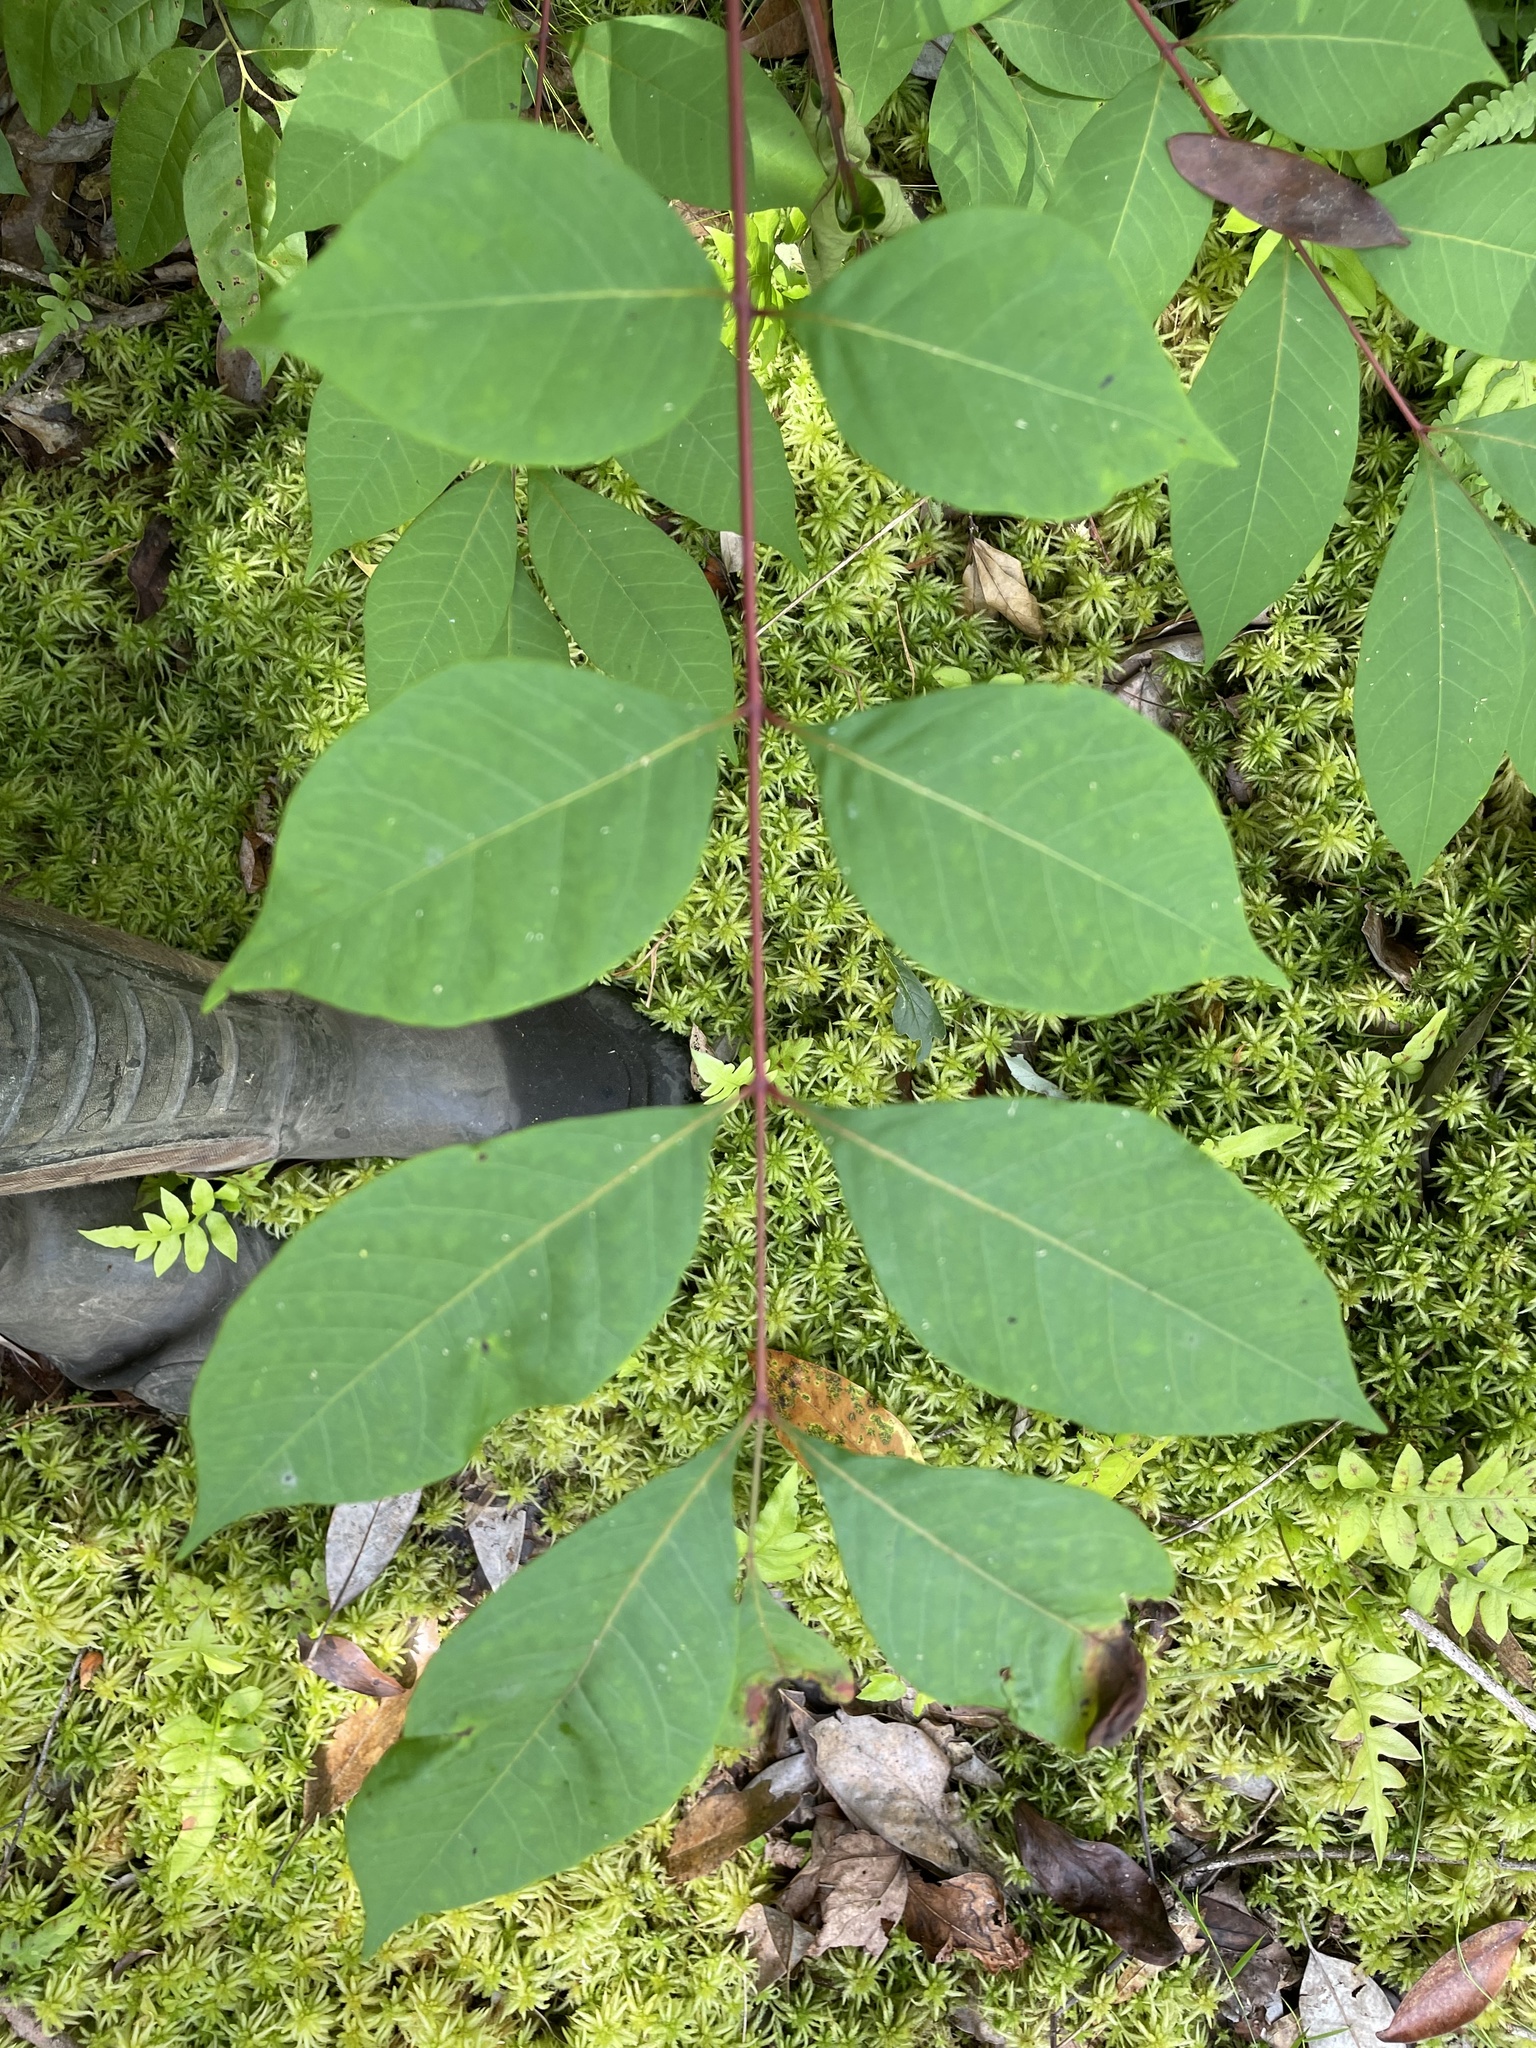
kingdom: Plantae
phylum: Tracheophyta
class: Magnoliopsida
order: Sapindales
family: Anacardiaceae
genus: Toxicodendron
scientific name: Toxicodendron vernix
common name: Poison sumac
